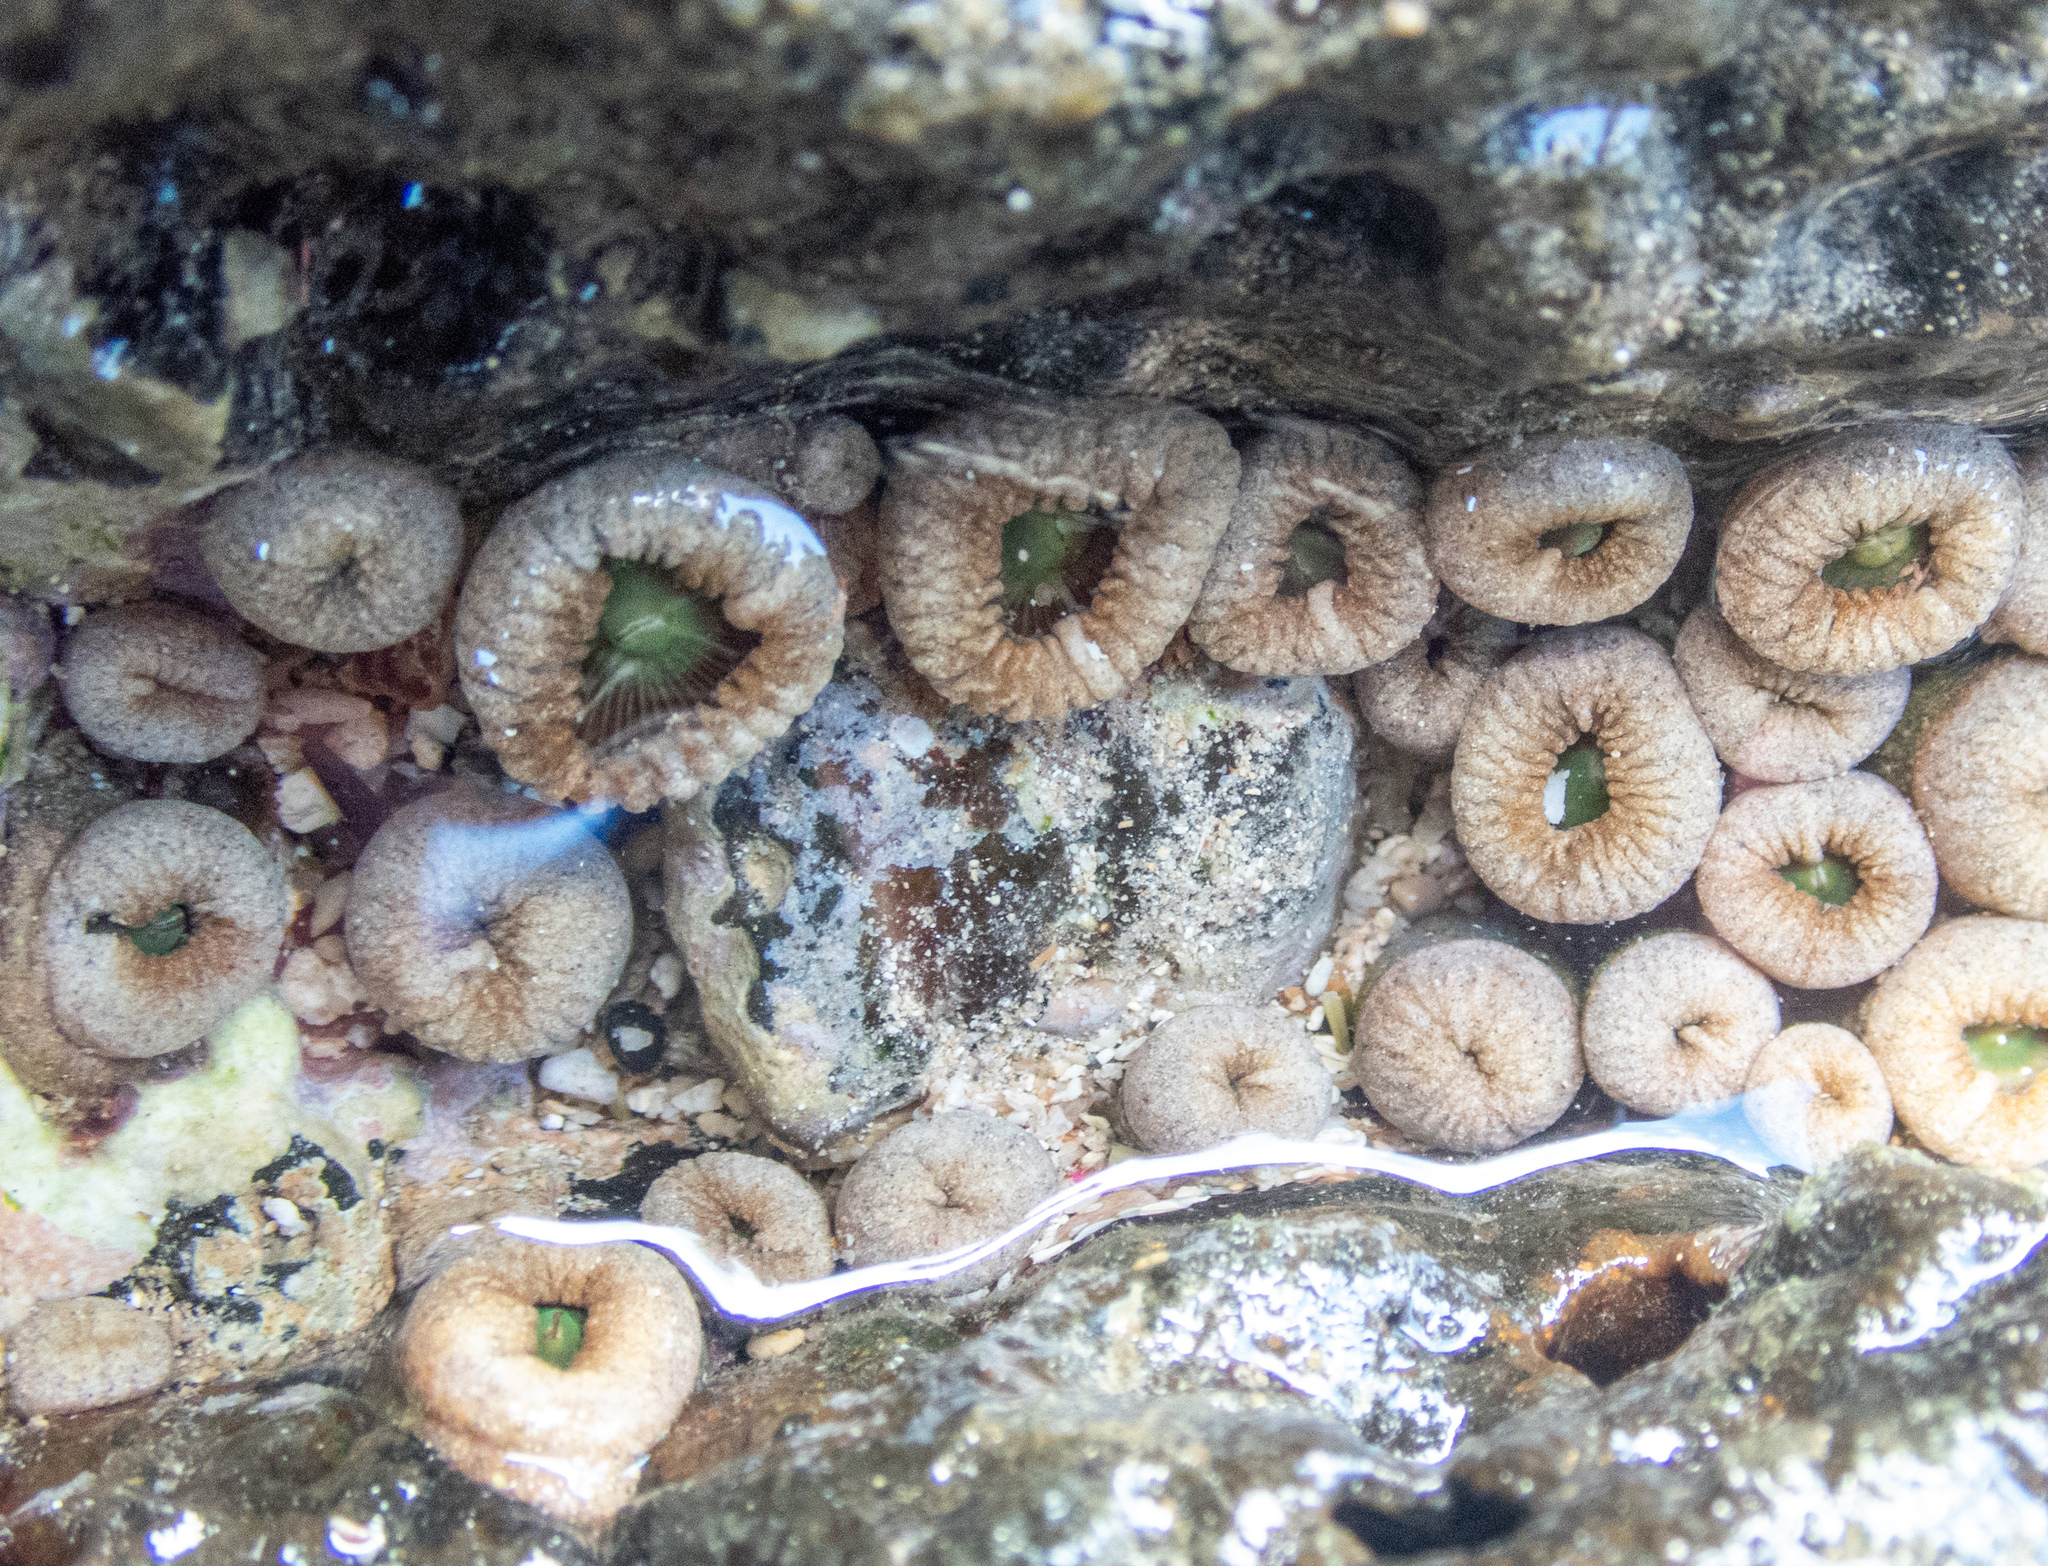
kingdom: Animalia
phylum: Cnidaria
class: Anthozoa
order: Zoantharia
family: Sphenopidae
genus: Palythoa
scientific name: Palythoa mutuki
